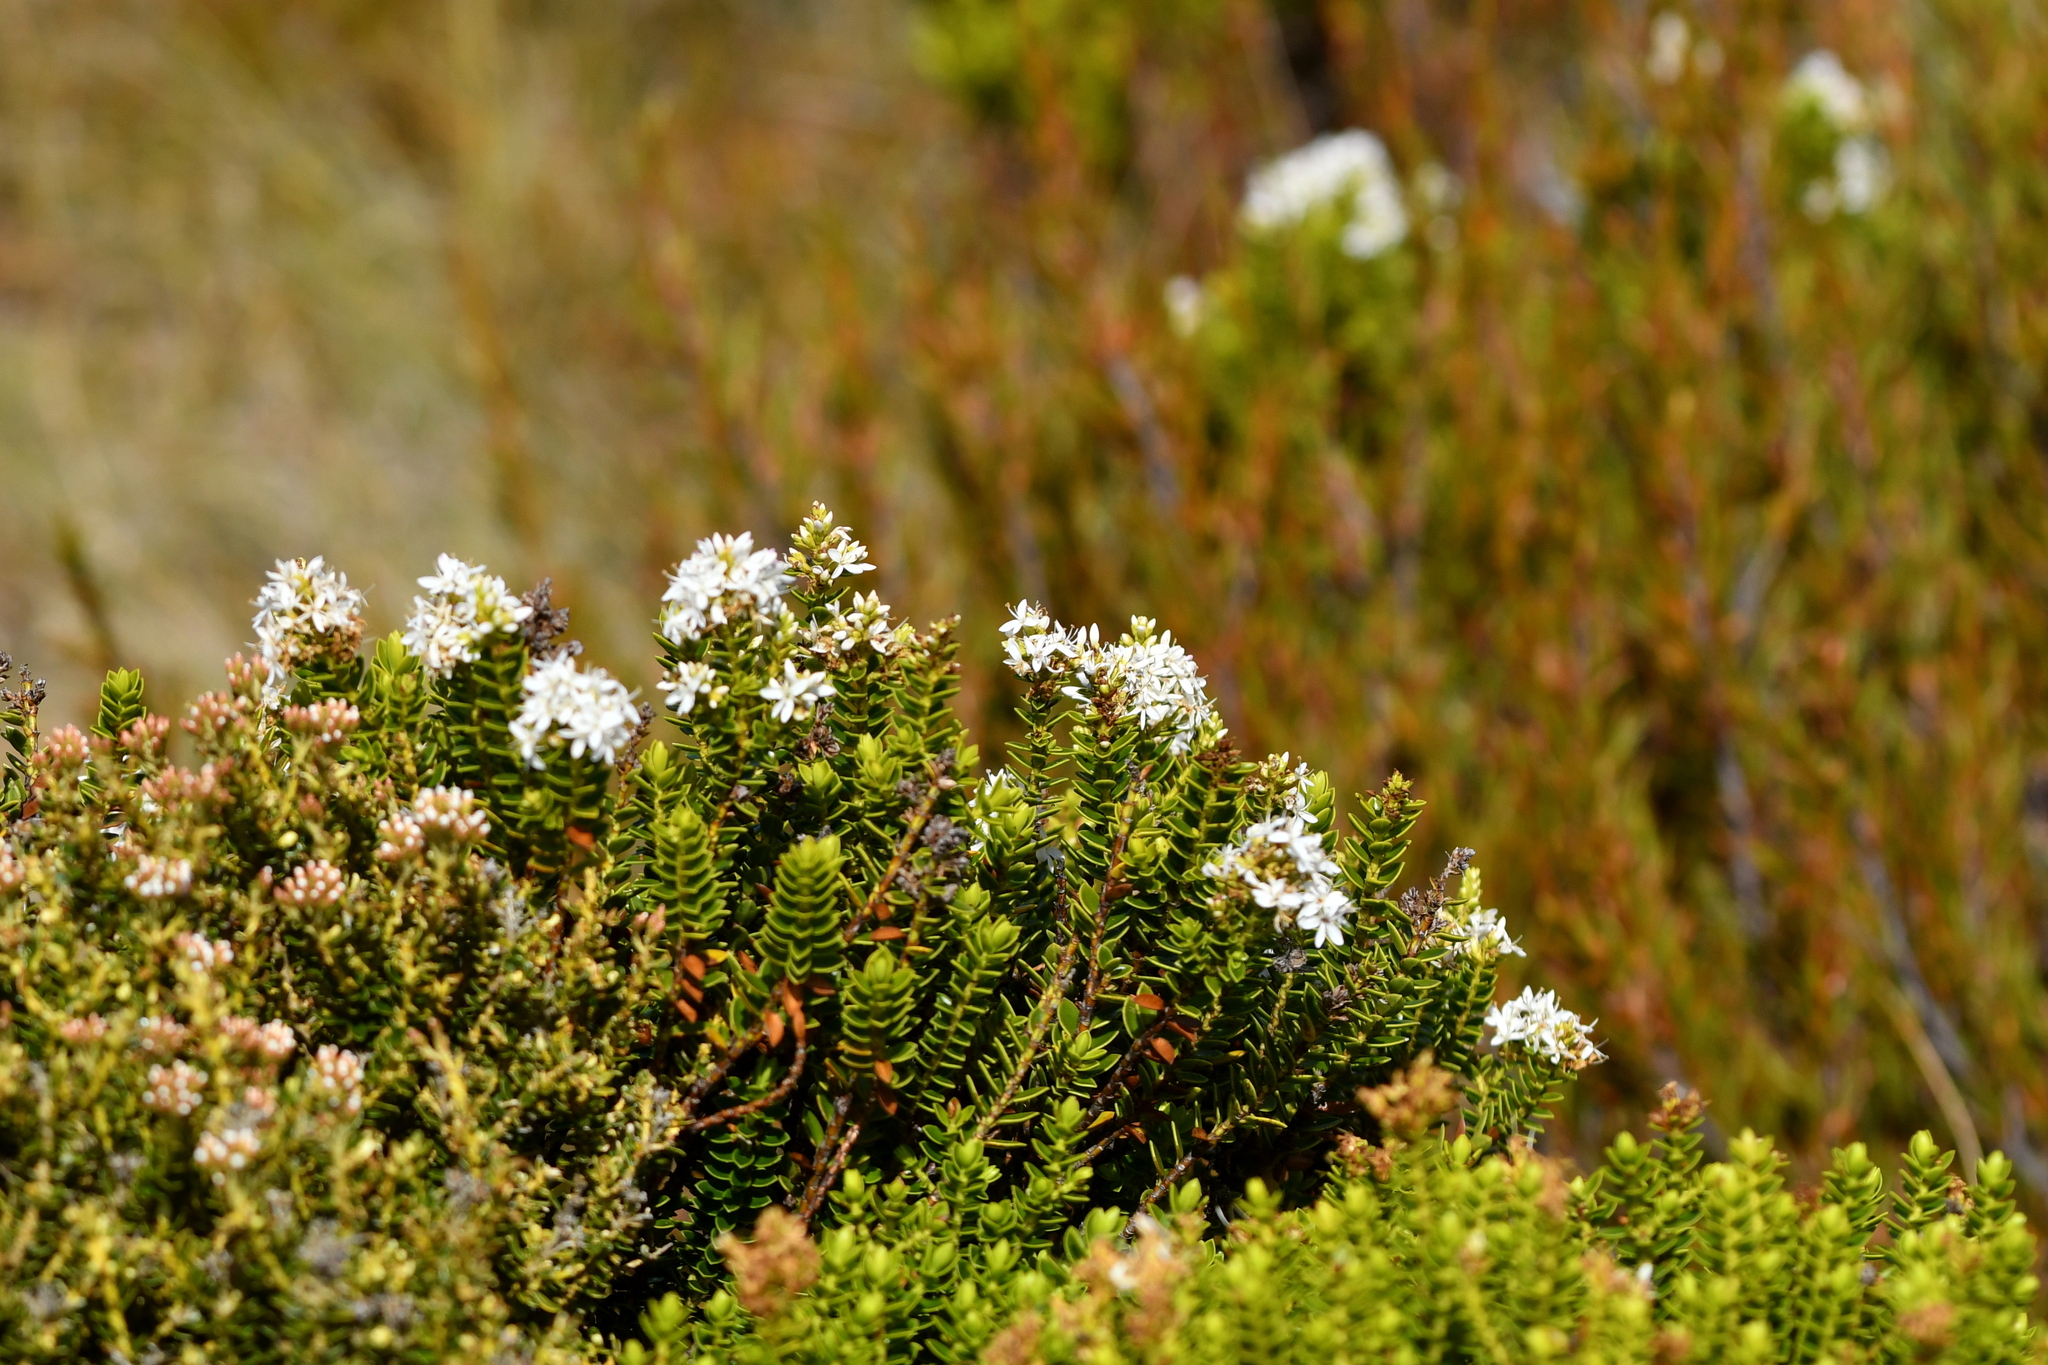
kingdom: Plantae
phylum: Tracheophyta
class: Magnoliopsida
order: Lamiales
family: Plantaginaceae
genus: Veronica
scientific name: Veronica odora
